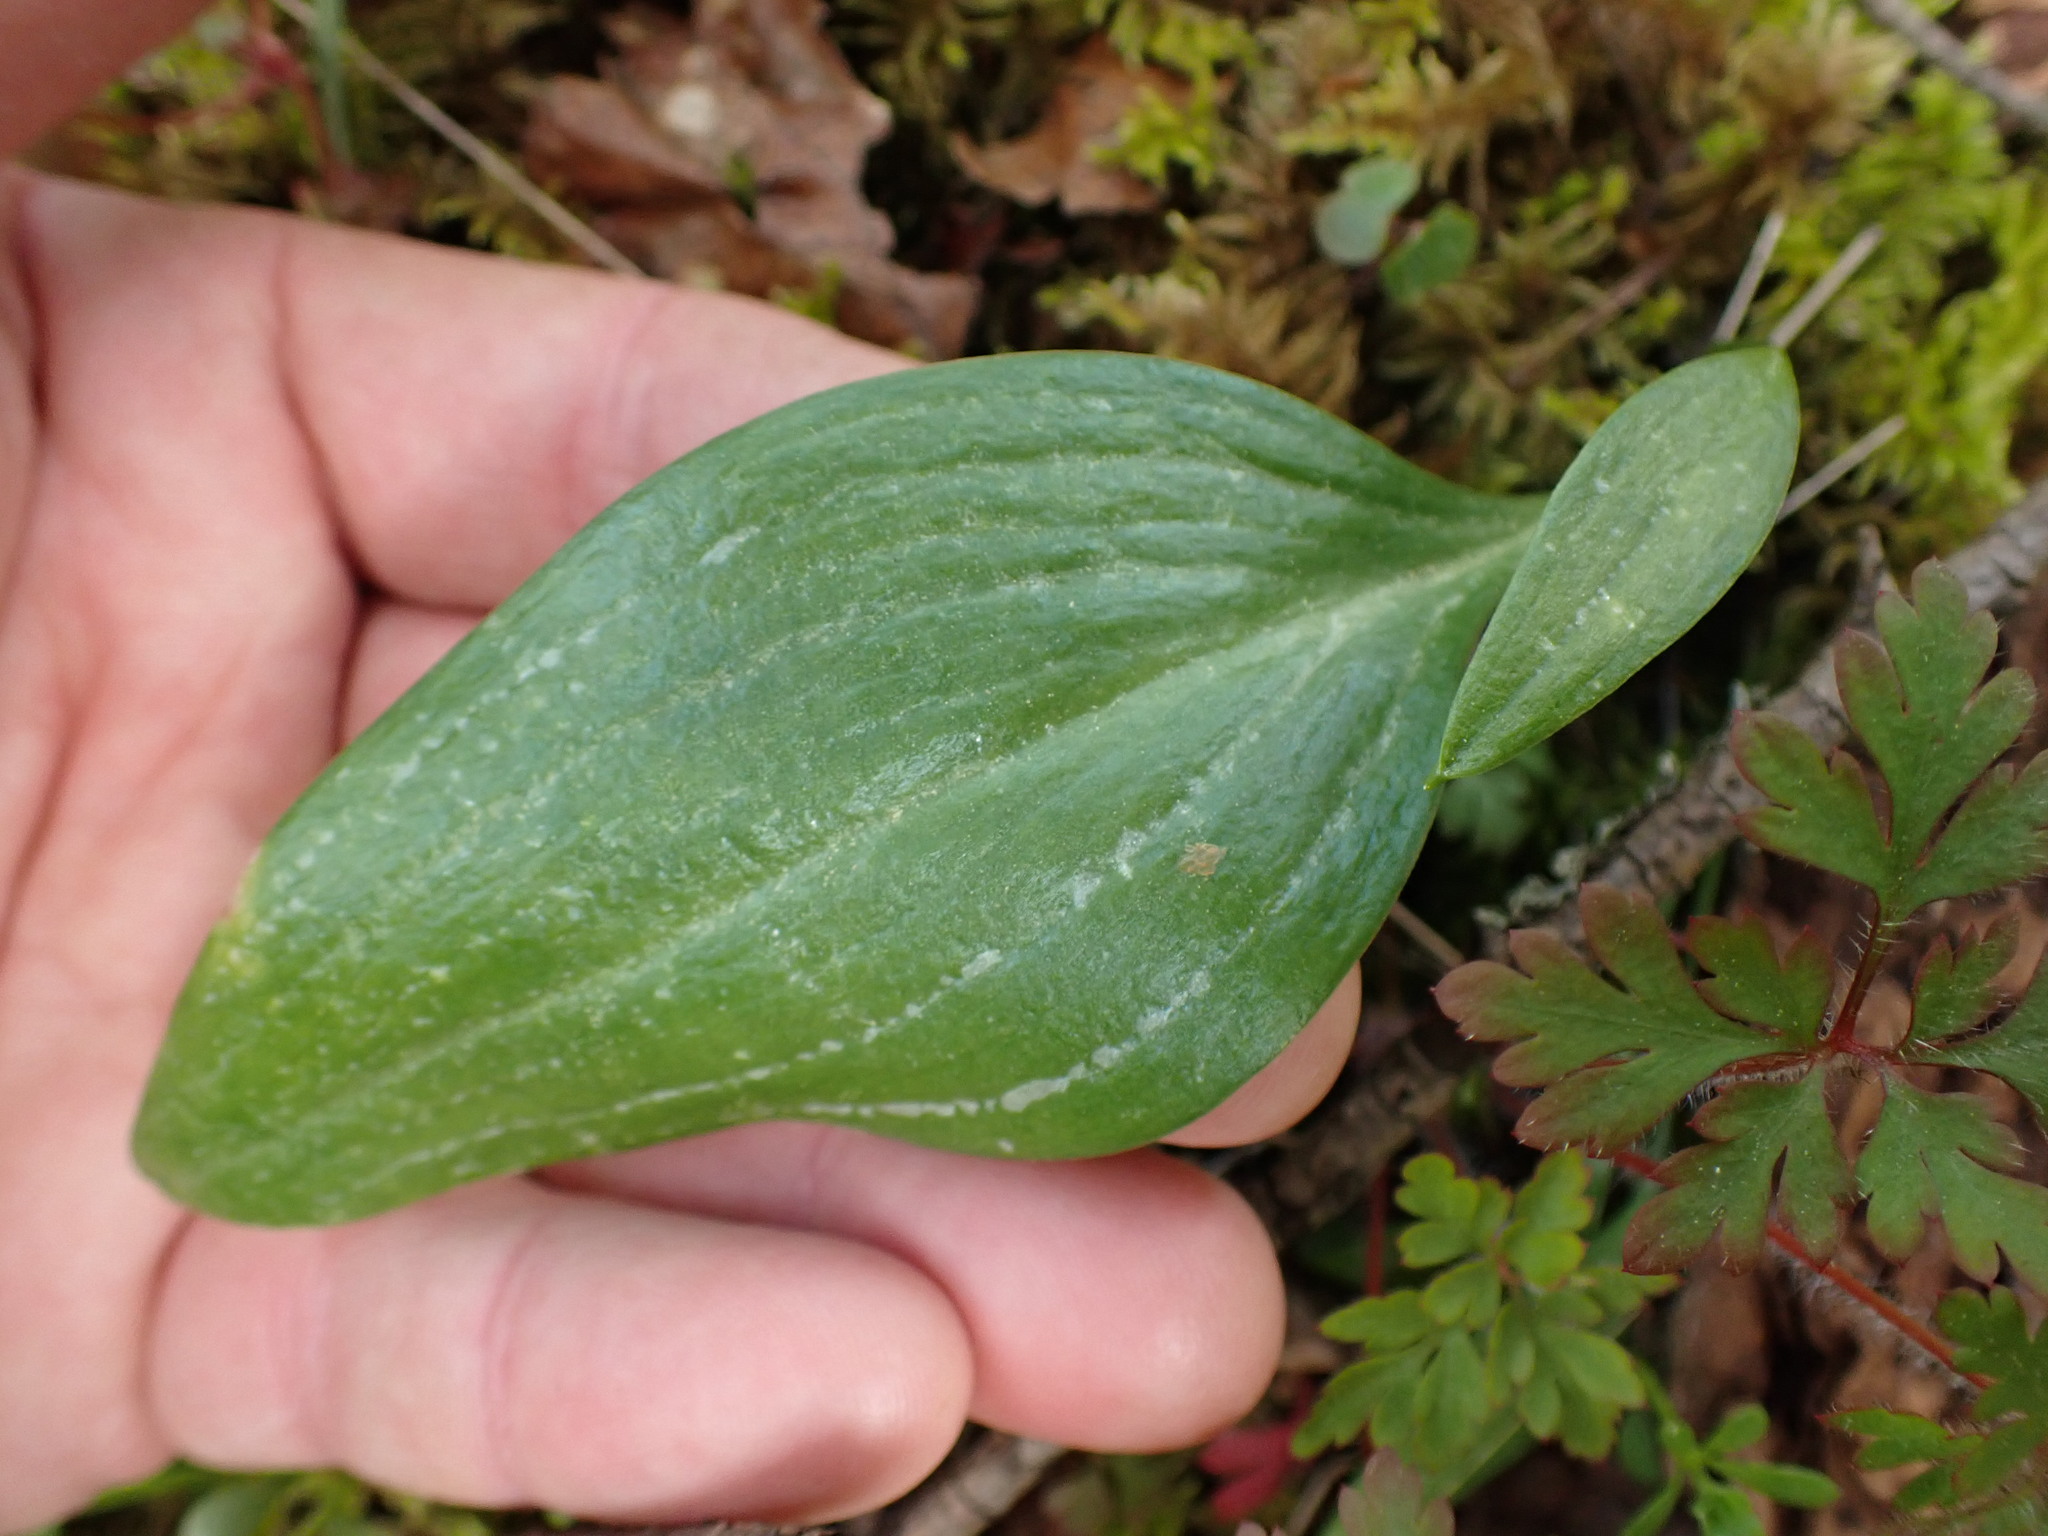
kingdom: Plantae
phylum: Tracheophyta
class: Liliopsida
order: Liliales
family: Liliaceae
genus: Fritillaria
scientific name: Fritillaria affinis
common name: Ojai fritillary
